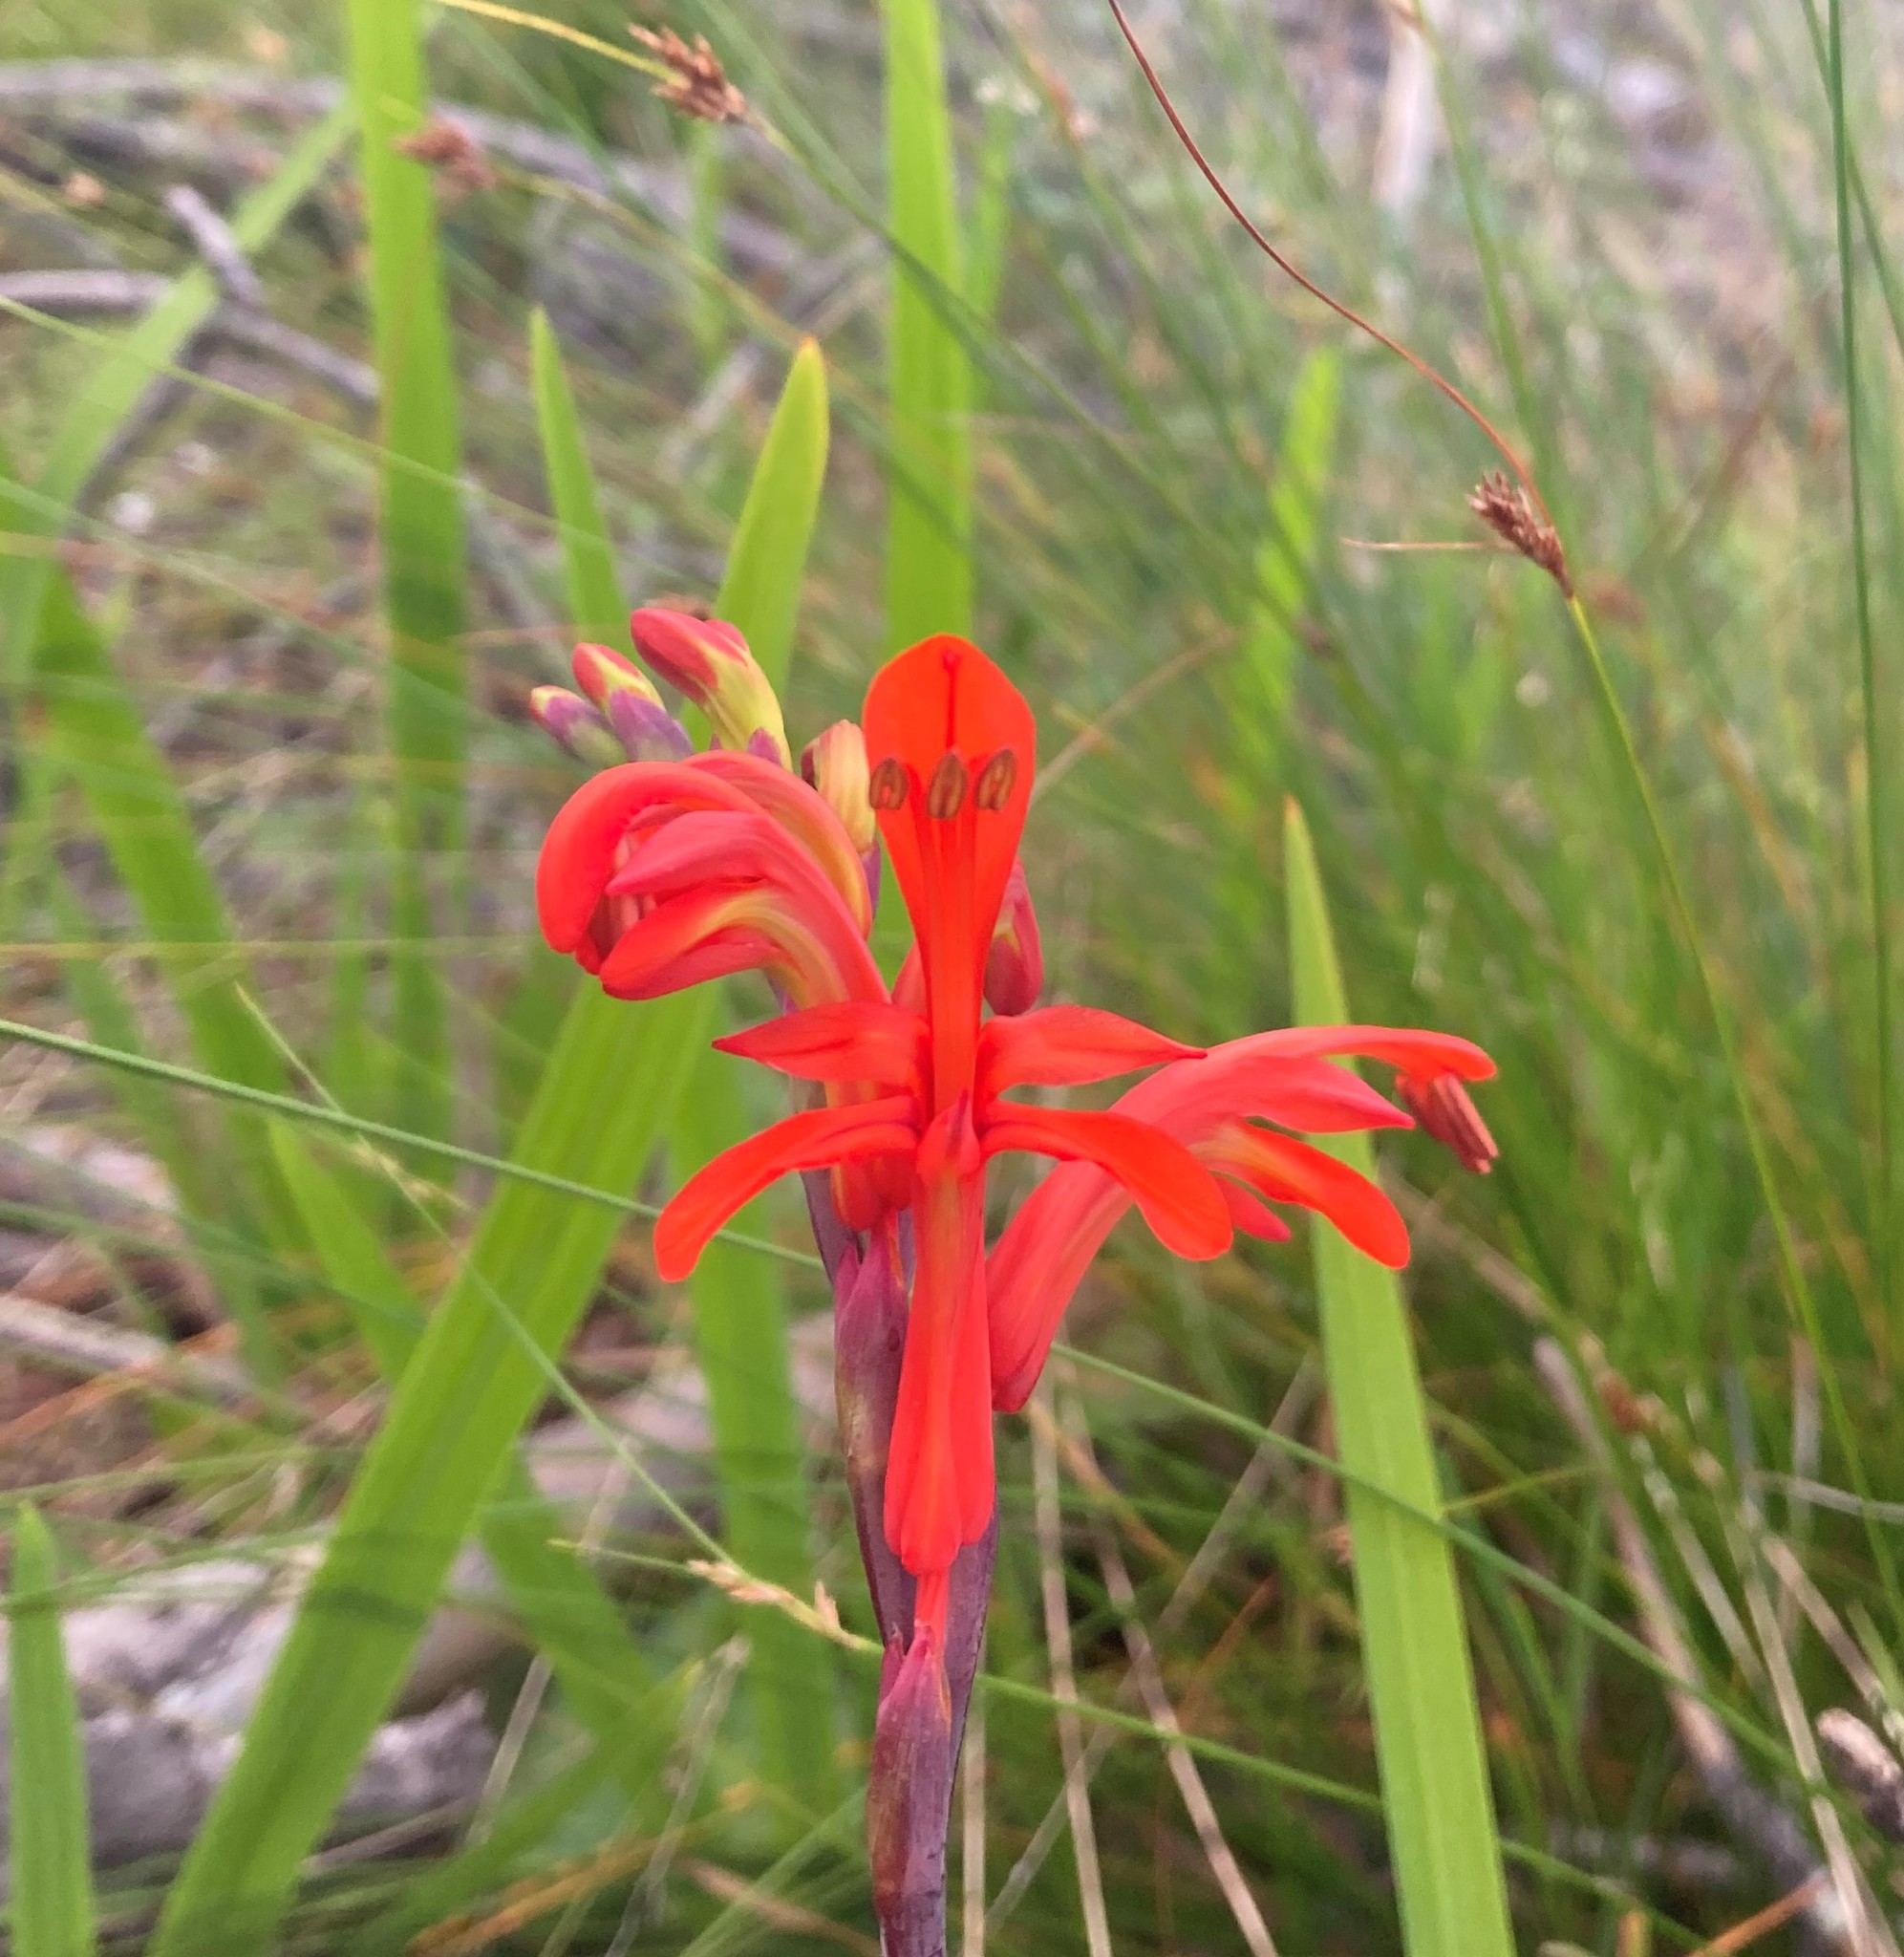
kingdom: Plantae
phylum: Tracheophyta
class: Liliopsida
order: Asparagales
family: Iridaceae
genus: Chasmanthe
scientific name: Chasmanthe aethiopica
